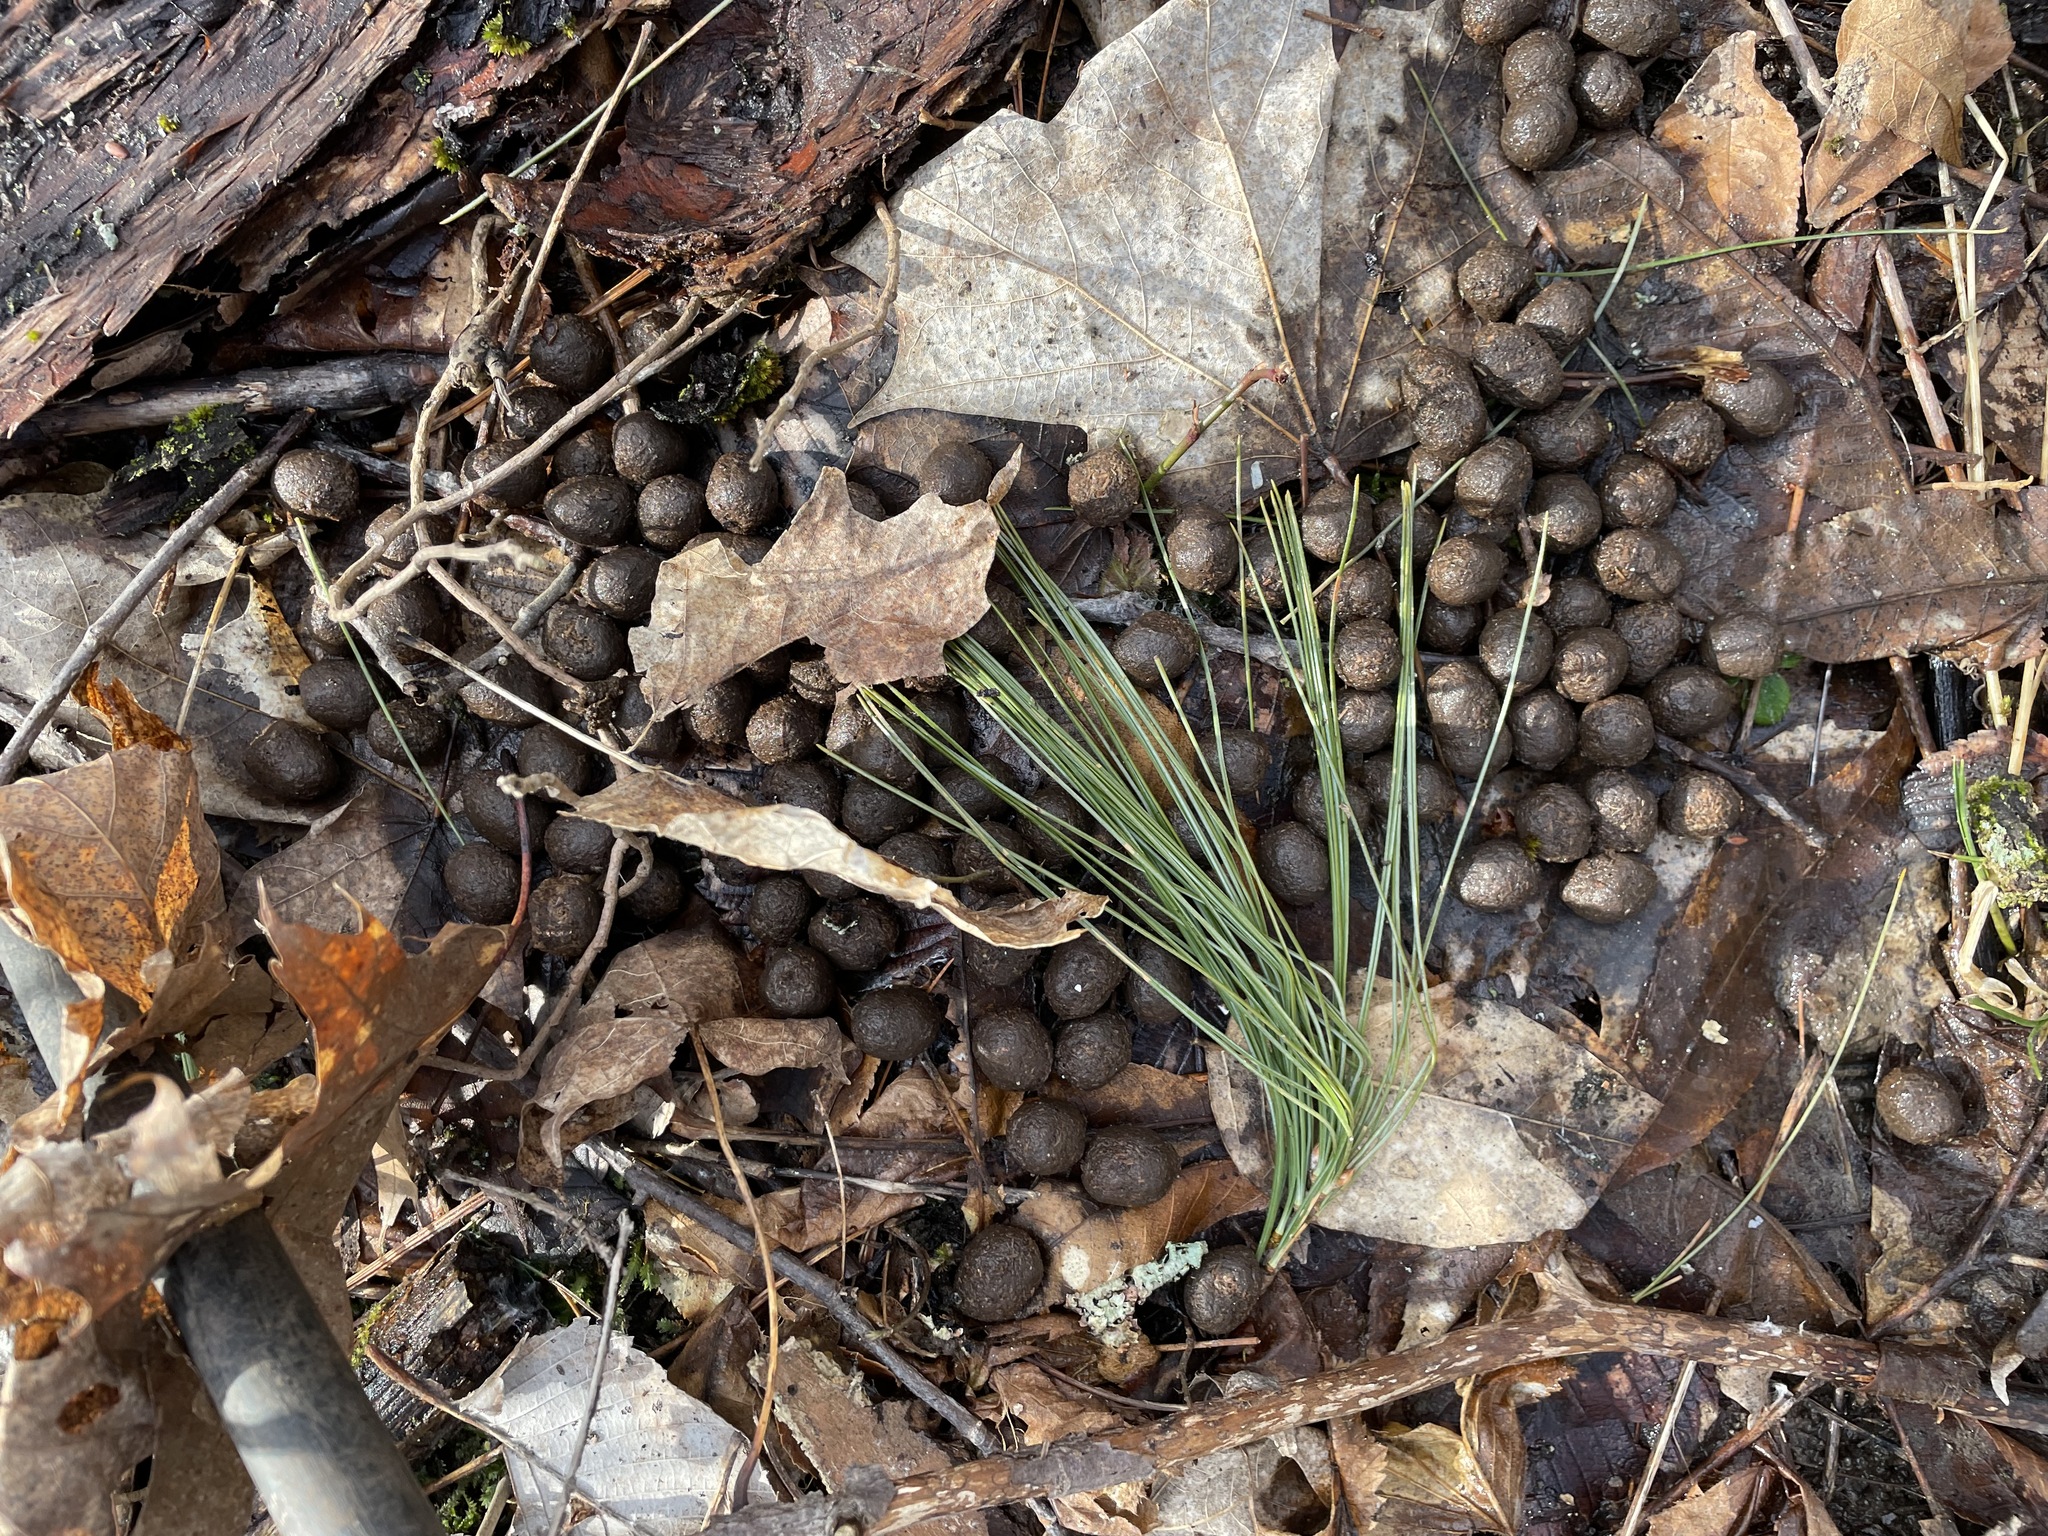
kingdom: Animalia
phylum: Chordata
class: Mammalia
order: Artiodactyla
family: Cervidae
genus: Odocoileus
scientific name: Odocoileus virginianus
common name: White-tailed deer
